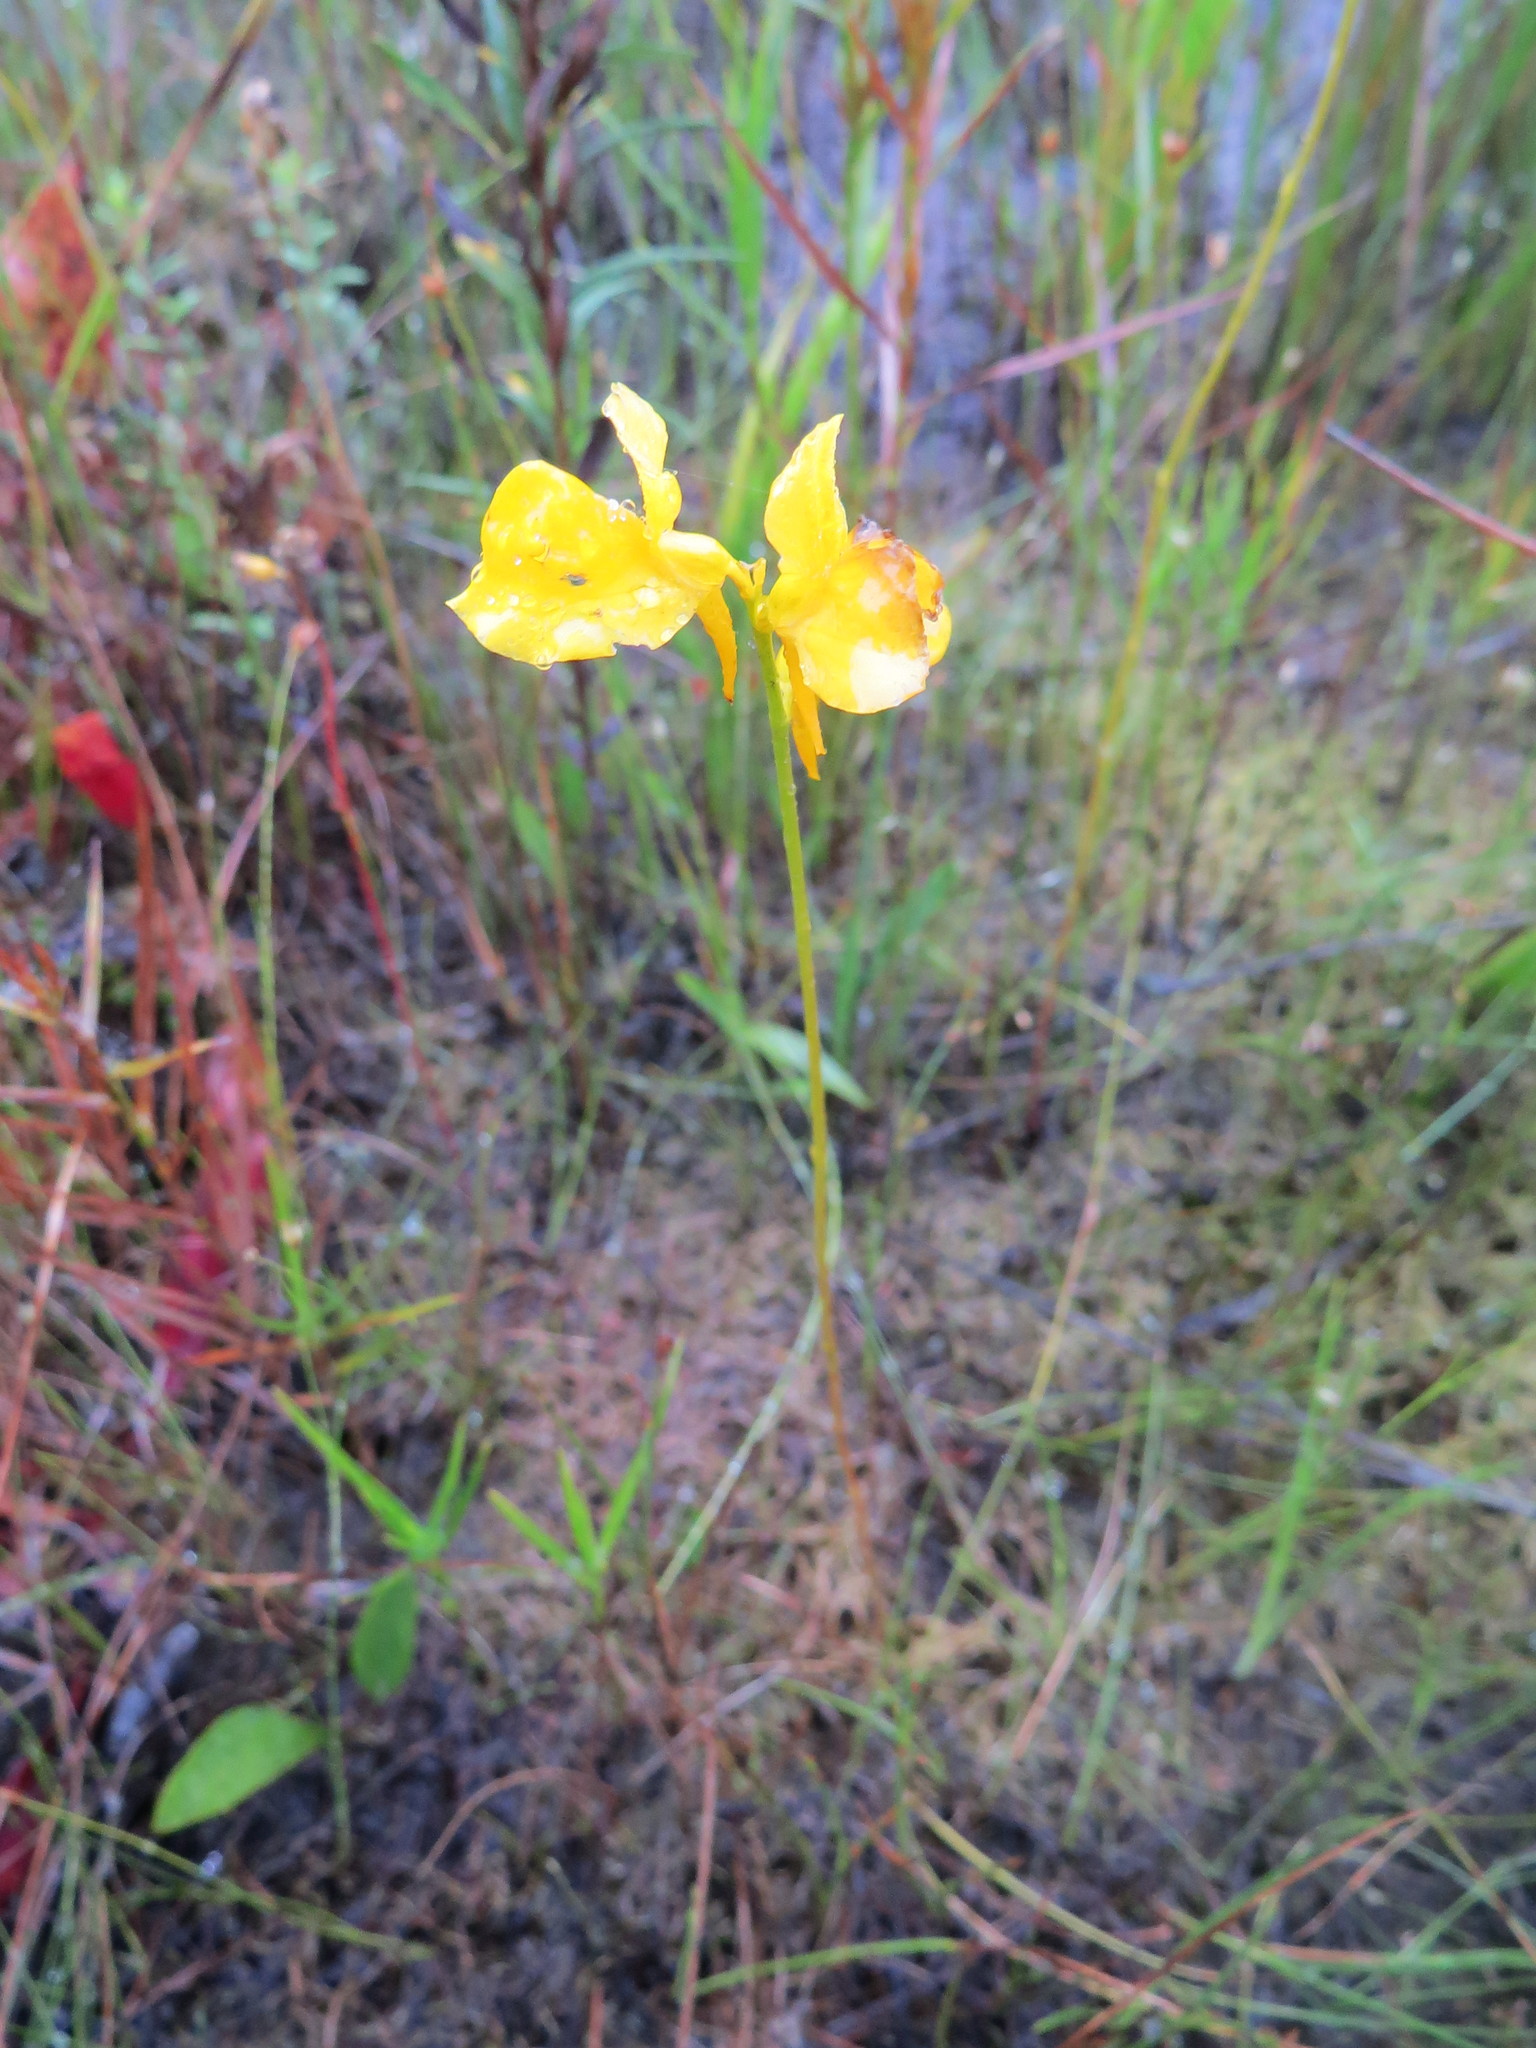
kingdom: Plantae
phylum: Tracheophyta
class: Magnoliopsida
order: Lamiales
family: Lentibulariaceae
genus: Utricularia
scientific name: Utricularia cornuta
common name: Horned bladderwort
